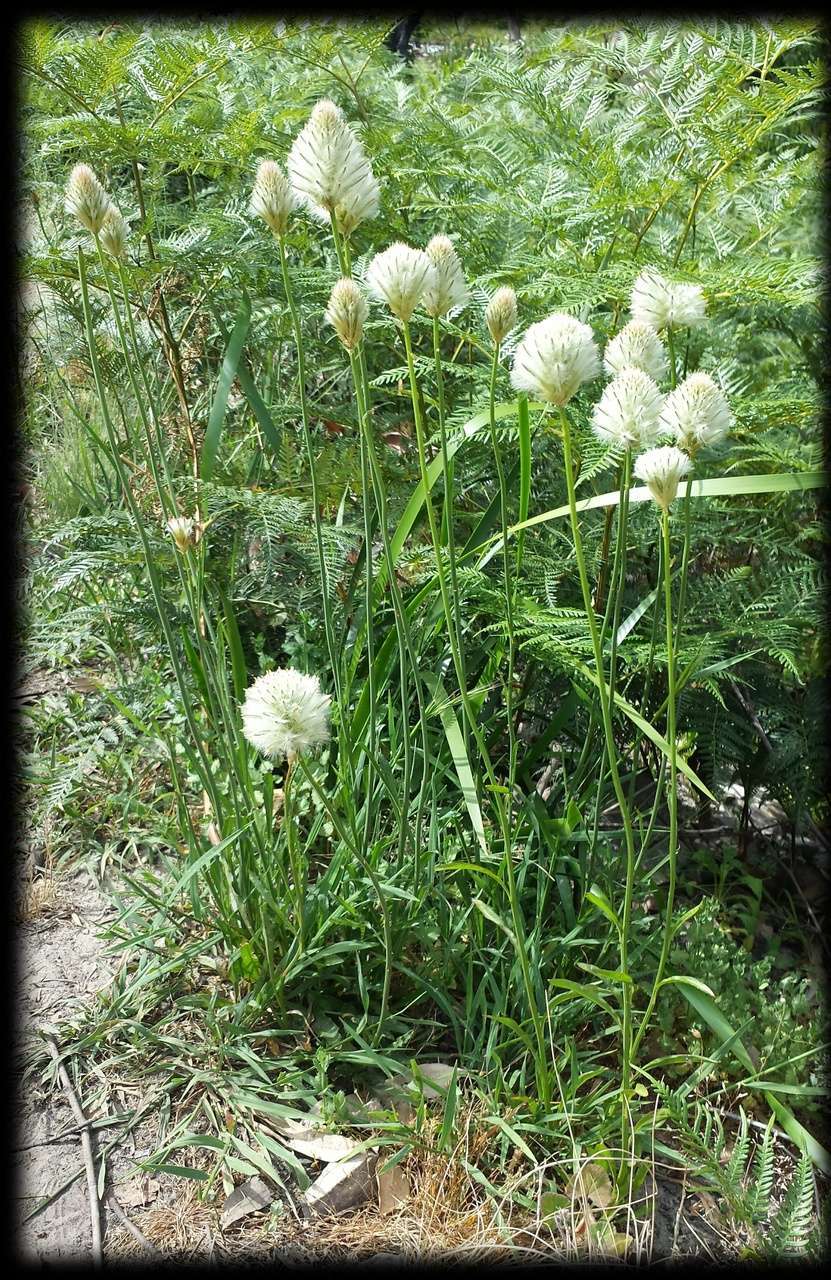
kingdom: Plantae
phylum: Tracheophyta
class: Magnoliopsida
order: Caryophyllales
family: Amaranthaceae
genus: Ptilotus
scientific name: Ptilotus macrocephalus
